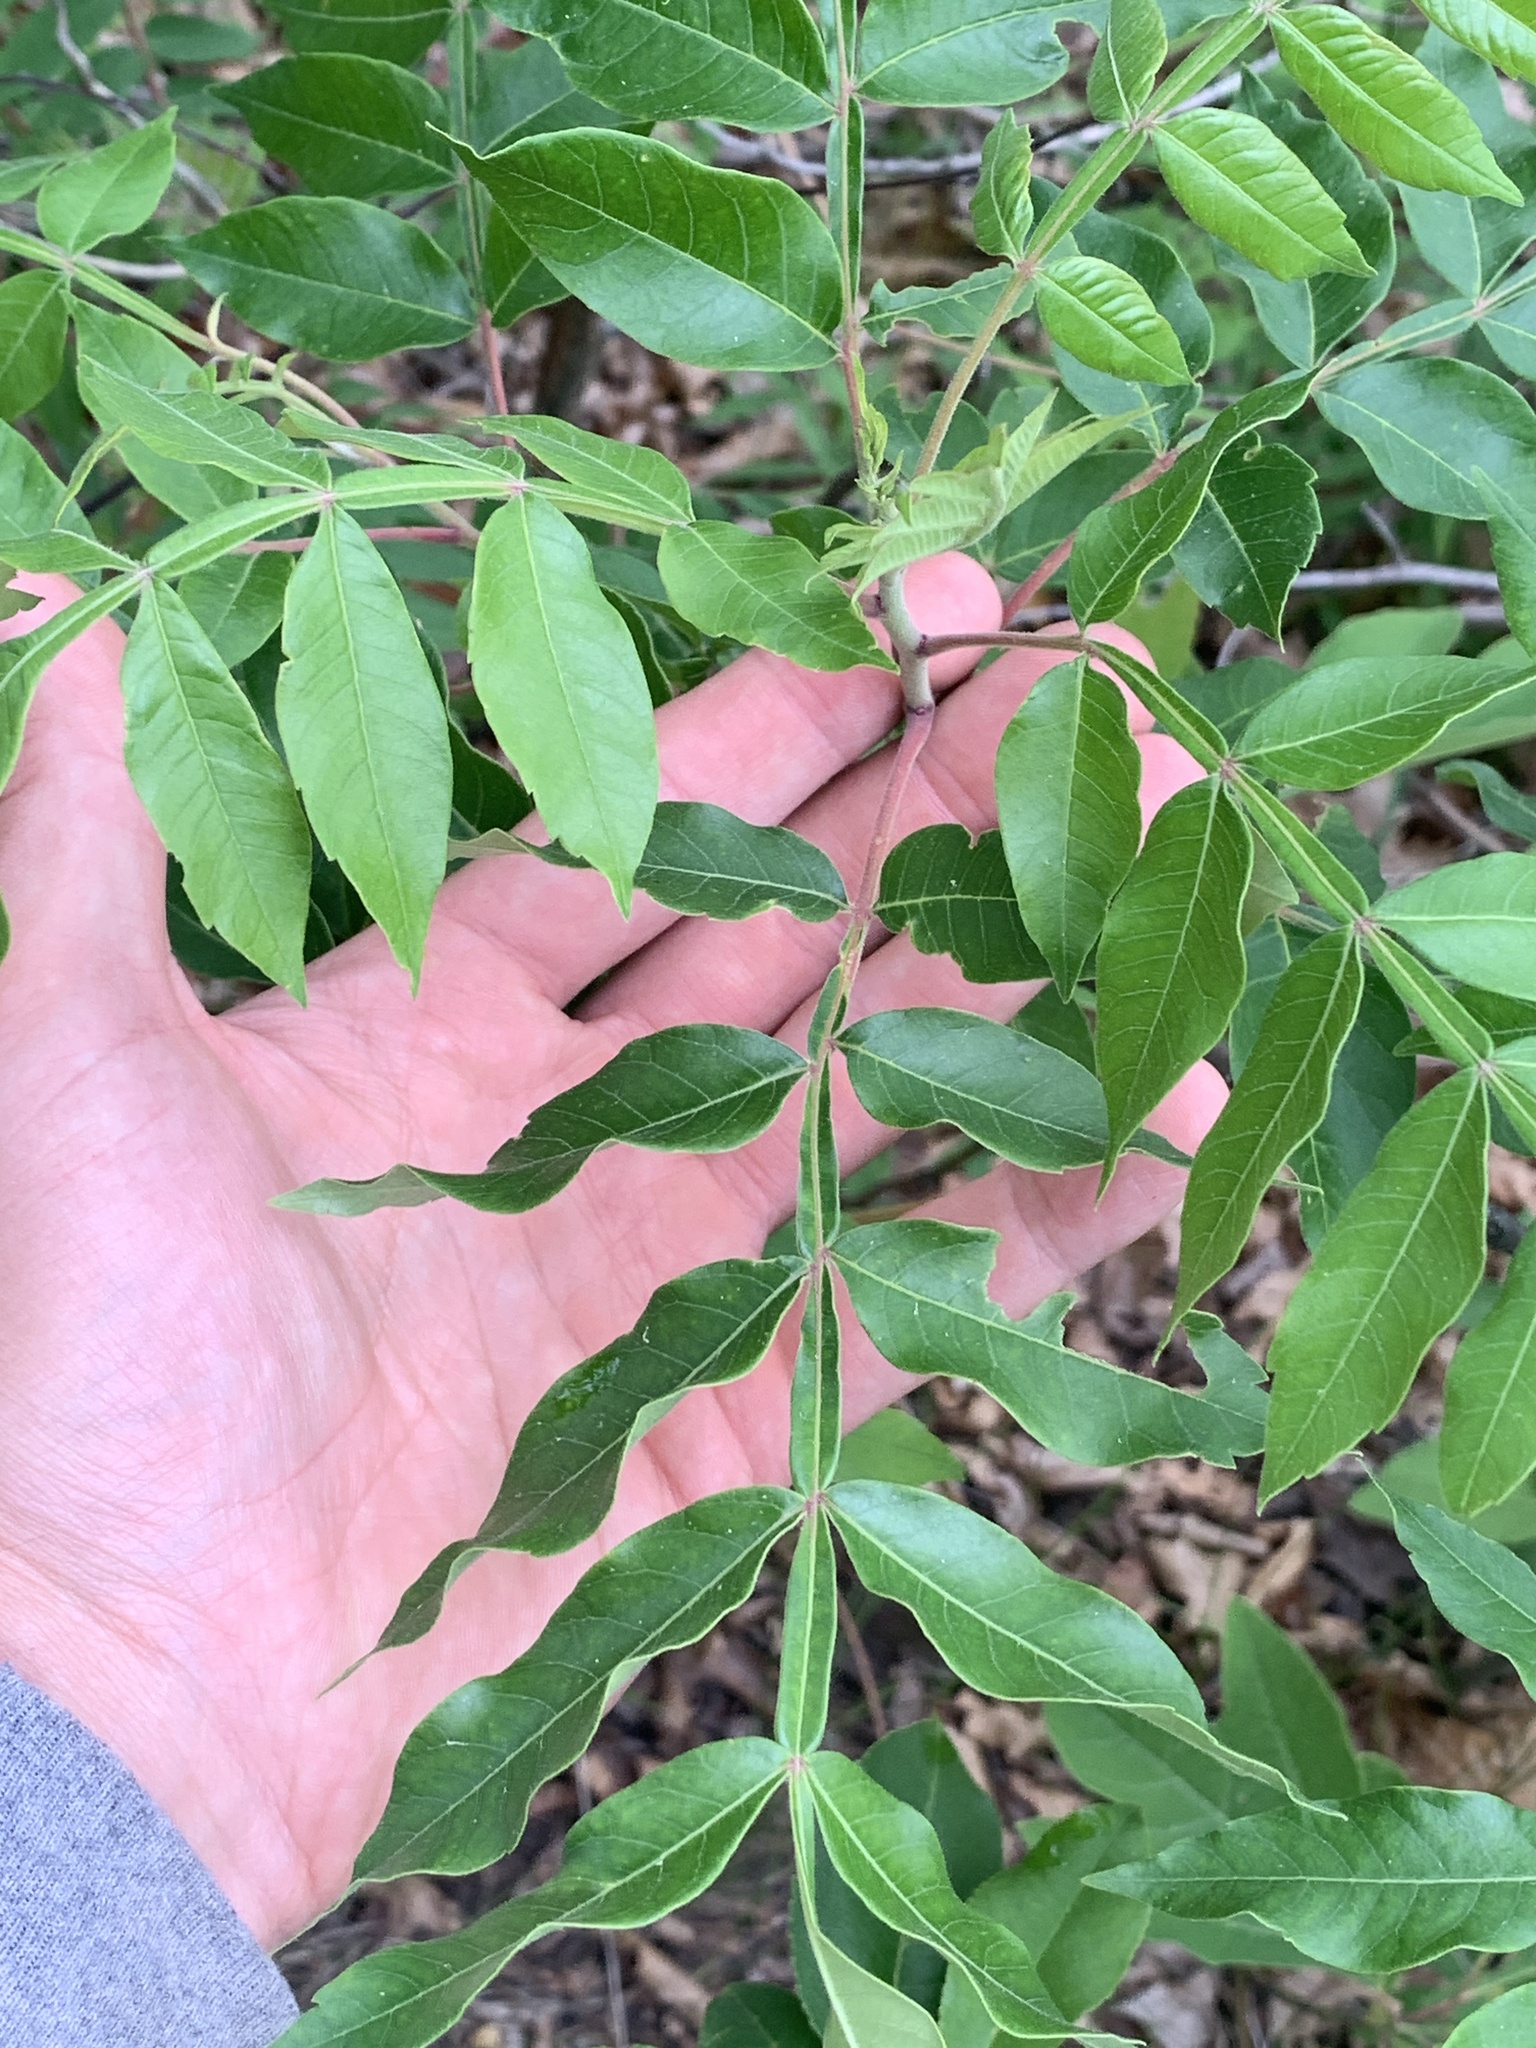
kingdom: Plantae
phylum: Tracheophyta
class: Magnoliopsida
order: Sapindales
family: Anacardiaceae
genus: Rhus
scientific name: Rhus copallina
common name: Shining sumac
